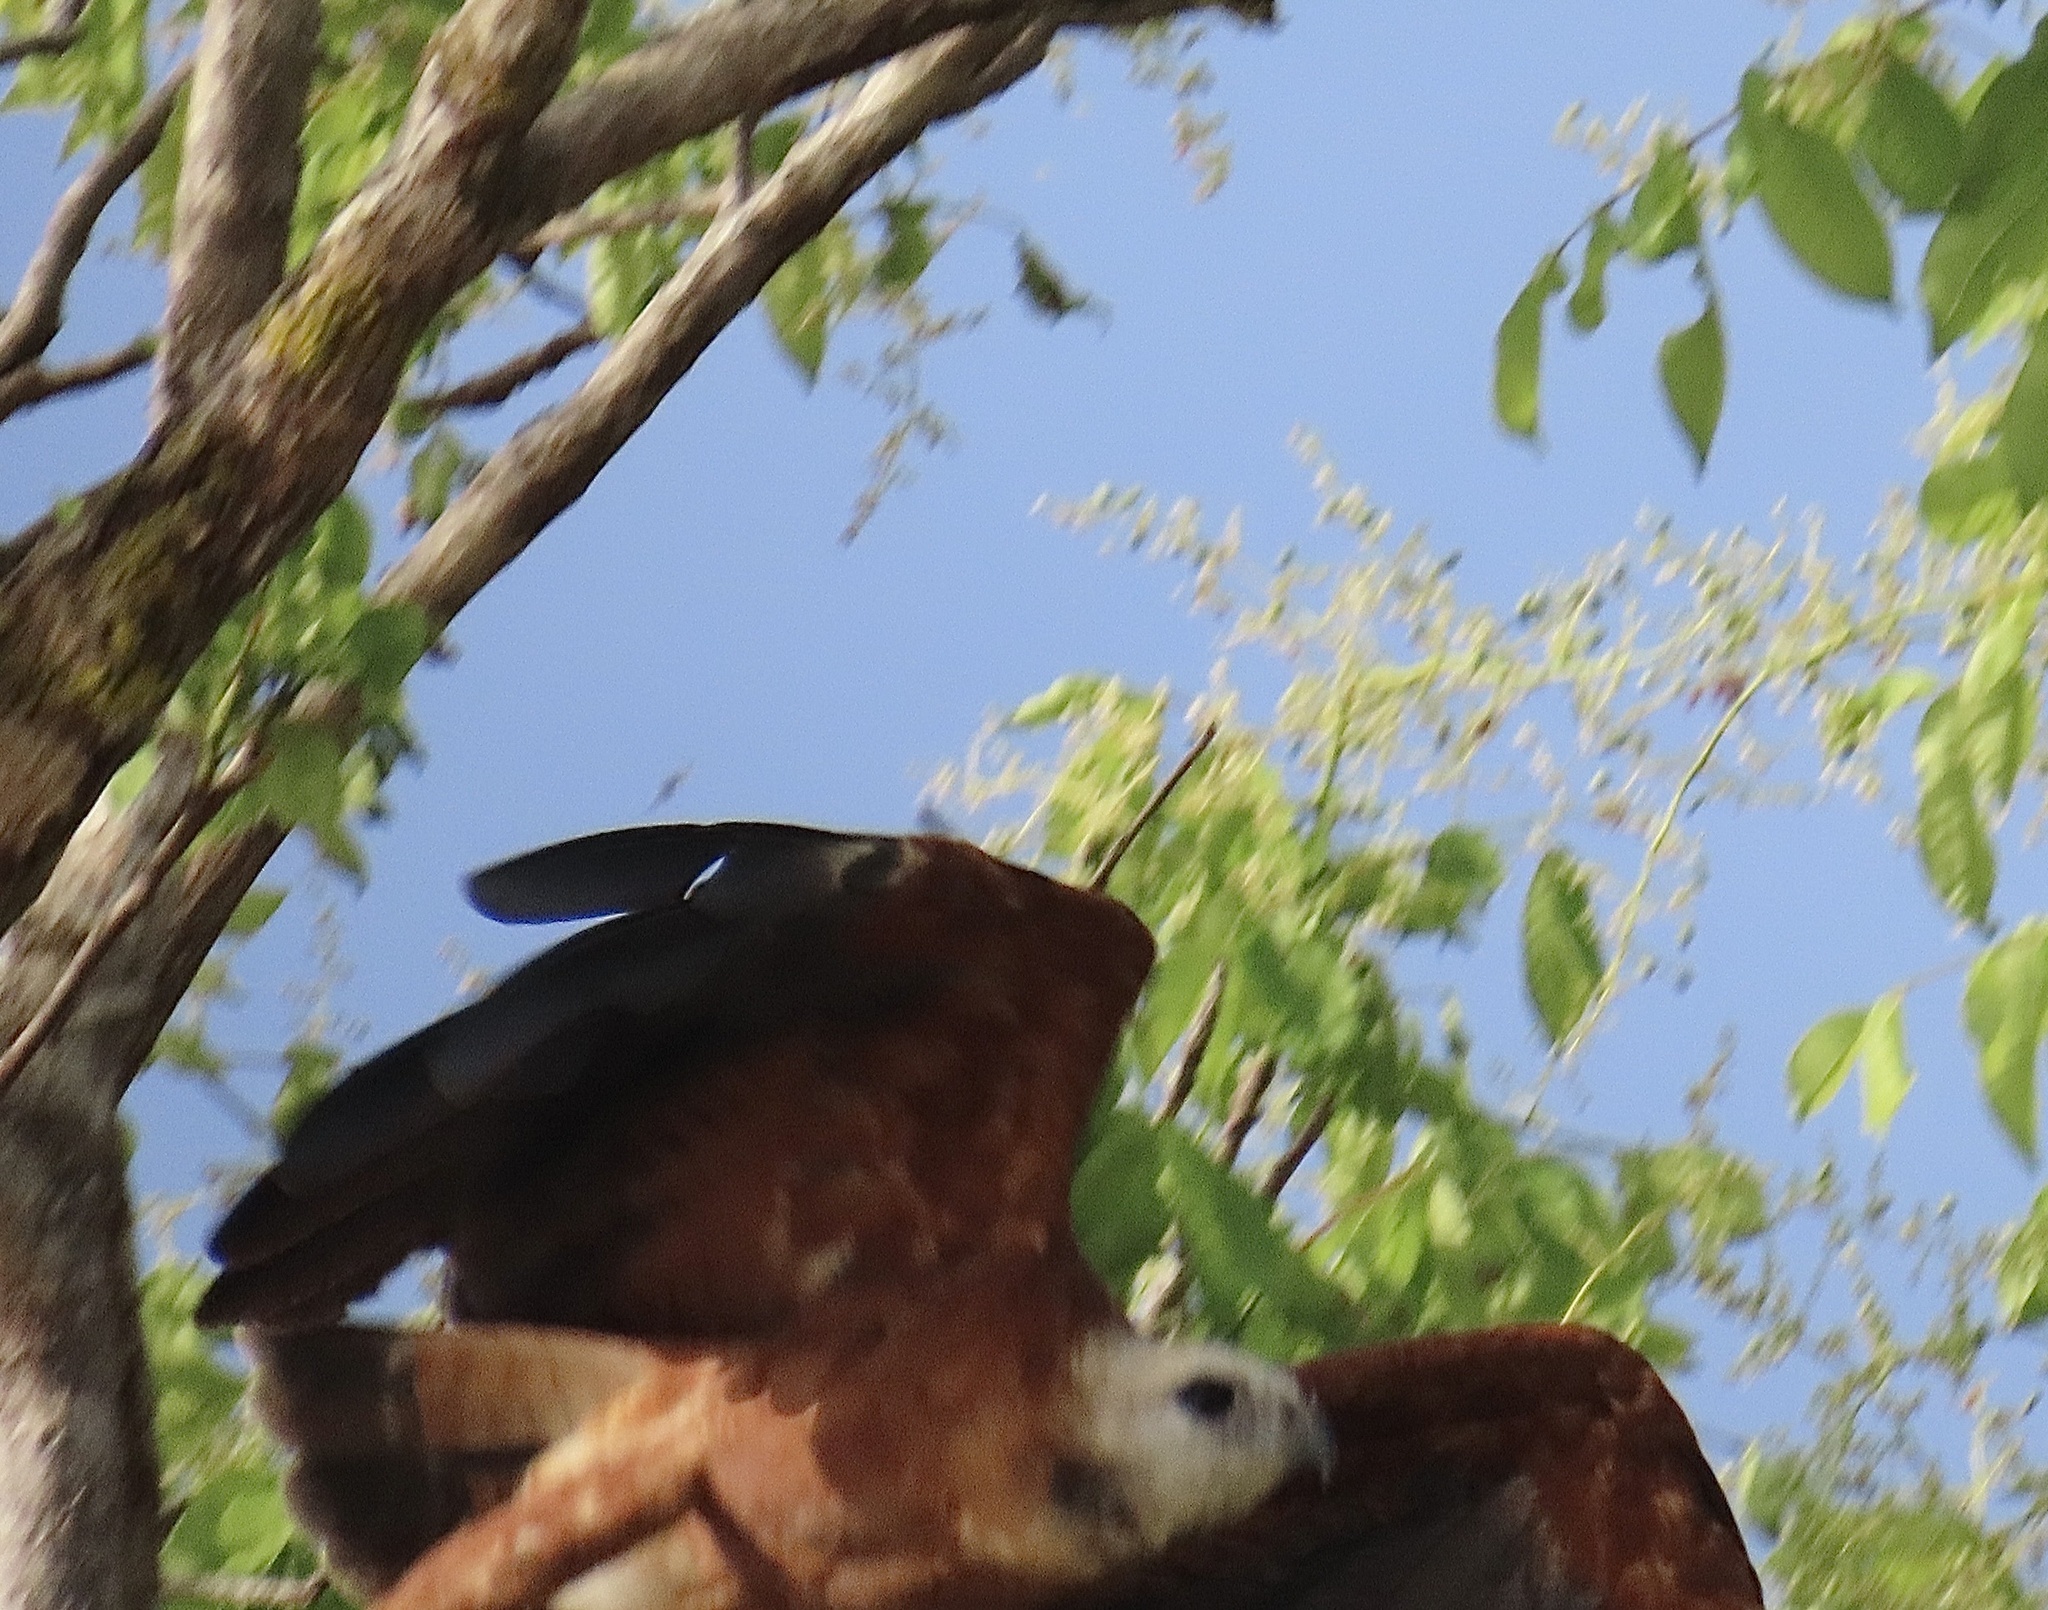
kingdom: Animalia
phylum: Chordata
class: Aves
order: Accipitriformes
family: Accipitridae
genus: Busarellus
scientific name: Busarellus nigricollis
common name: Black-collared hawk
